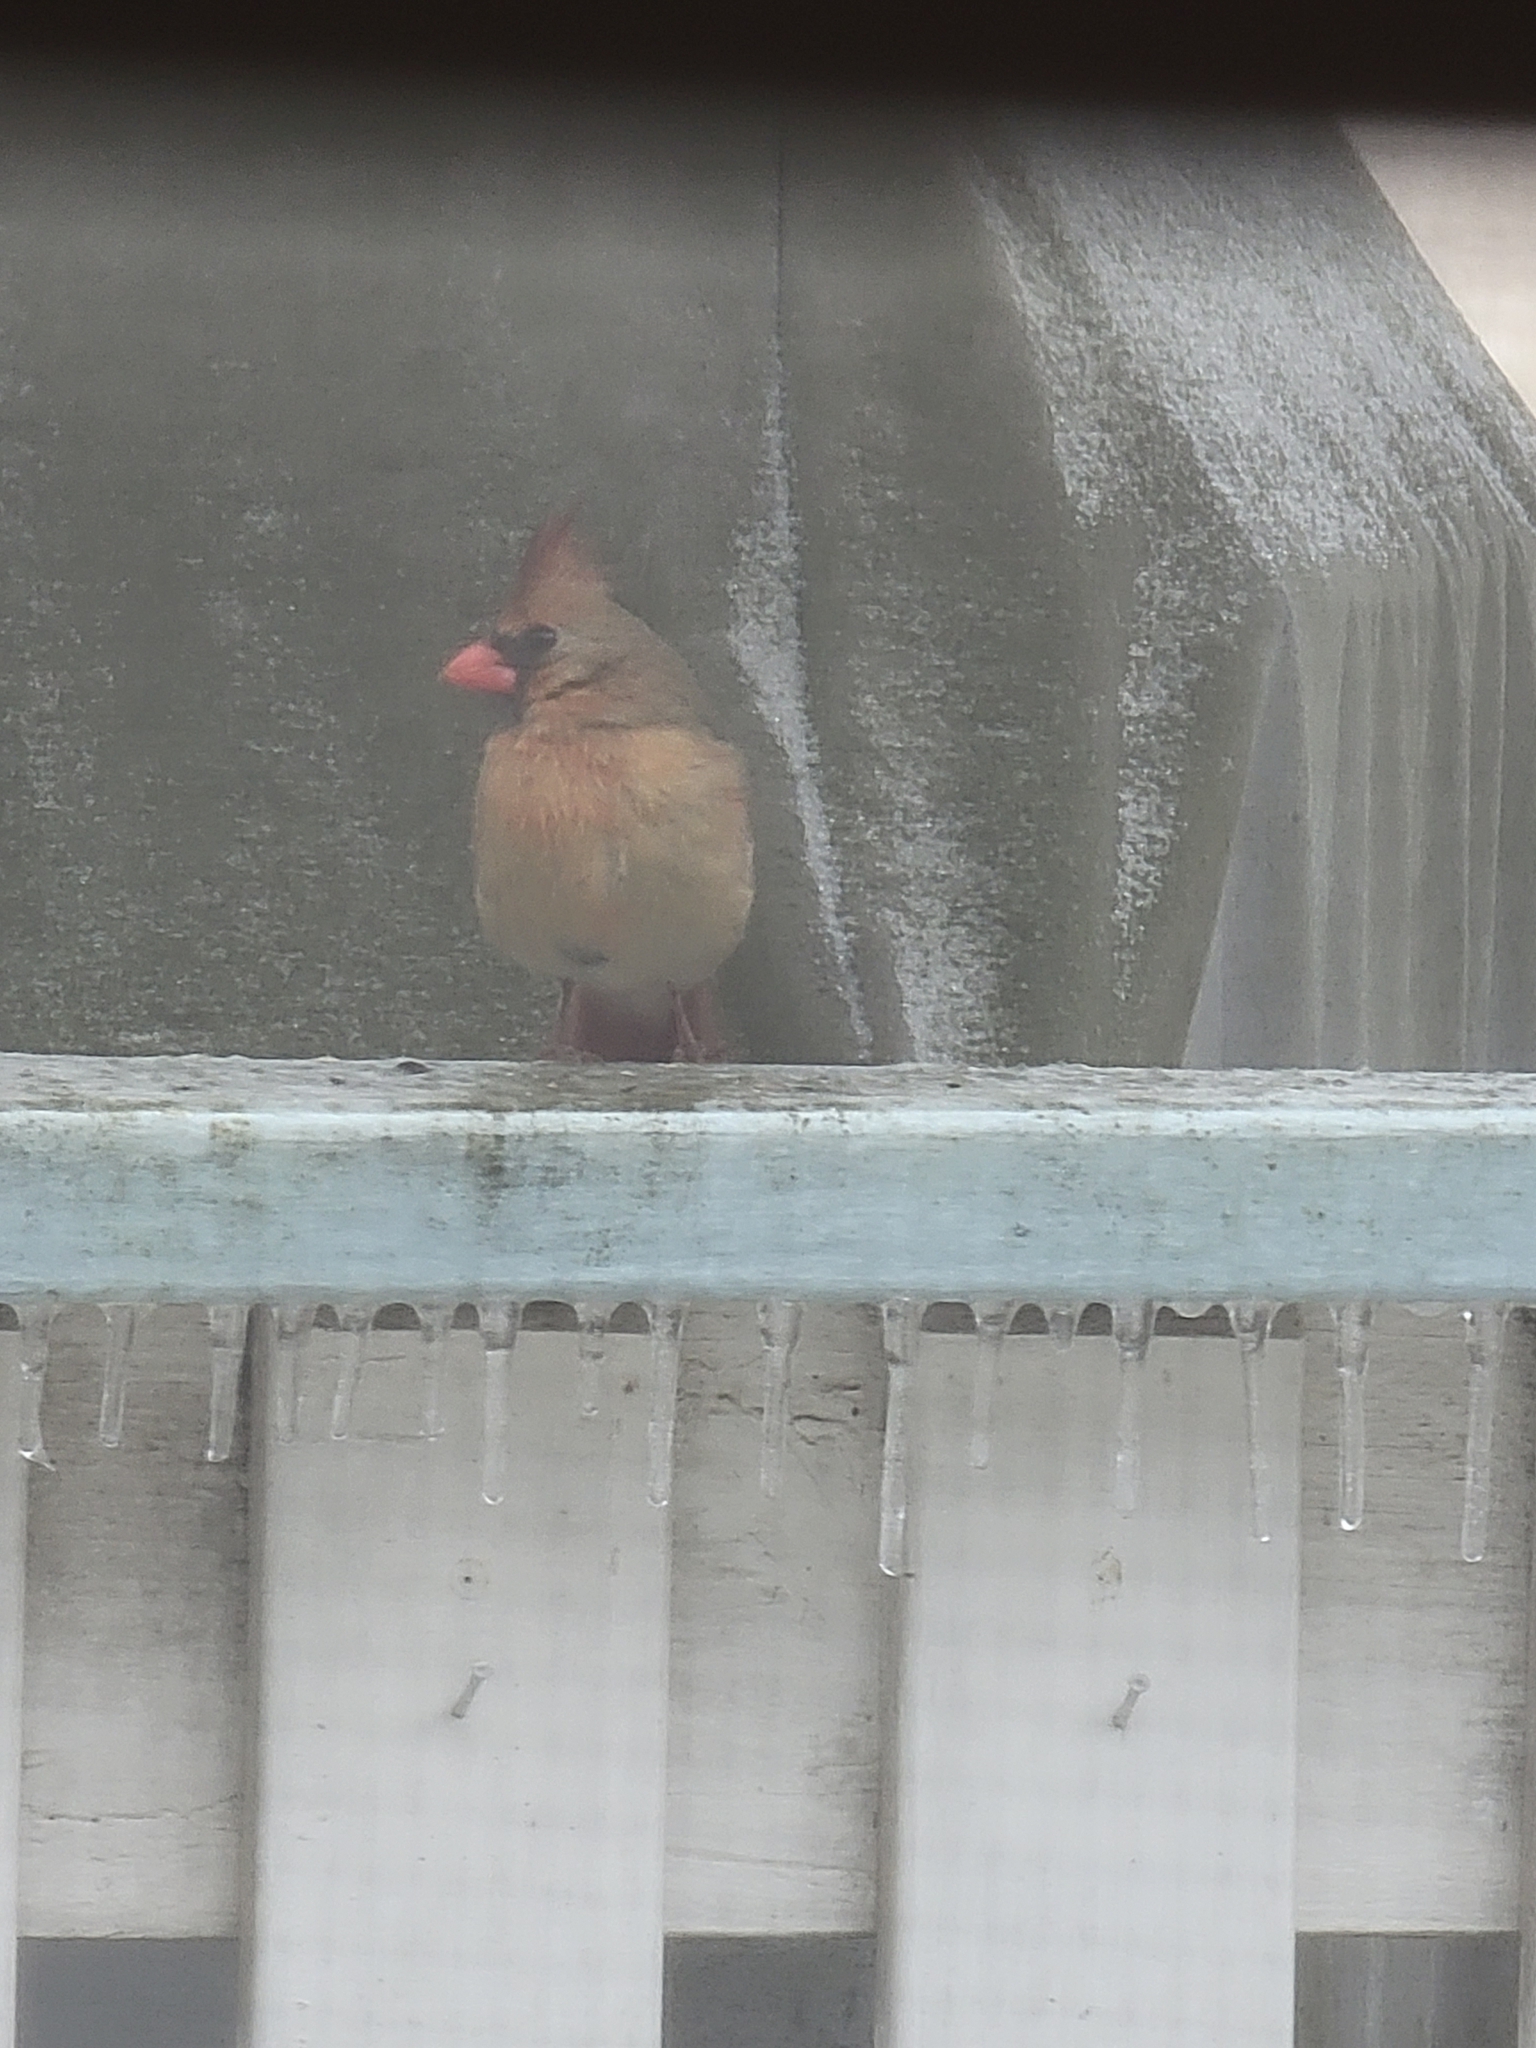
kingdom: Animalia
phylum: Chordata
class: Aves
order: Passeriformes
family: Cardinalidae
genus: Cardinalis
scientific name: Cardinalis cardinalis
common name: Northern cardinal
